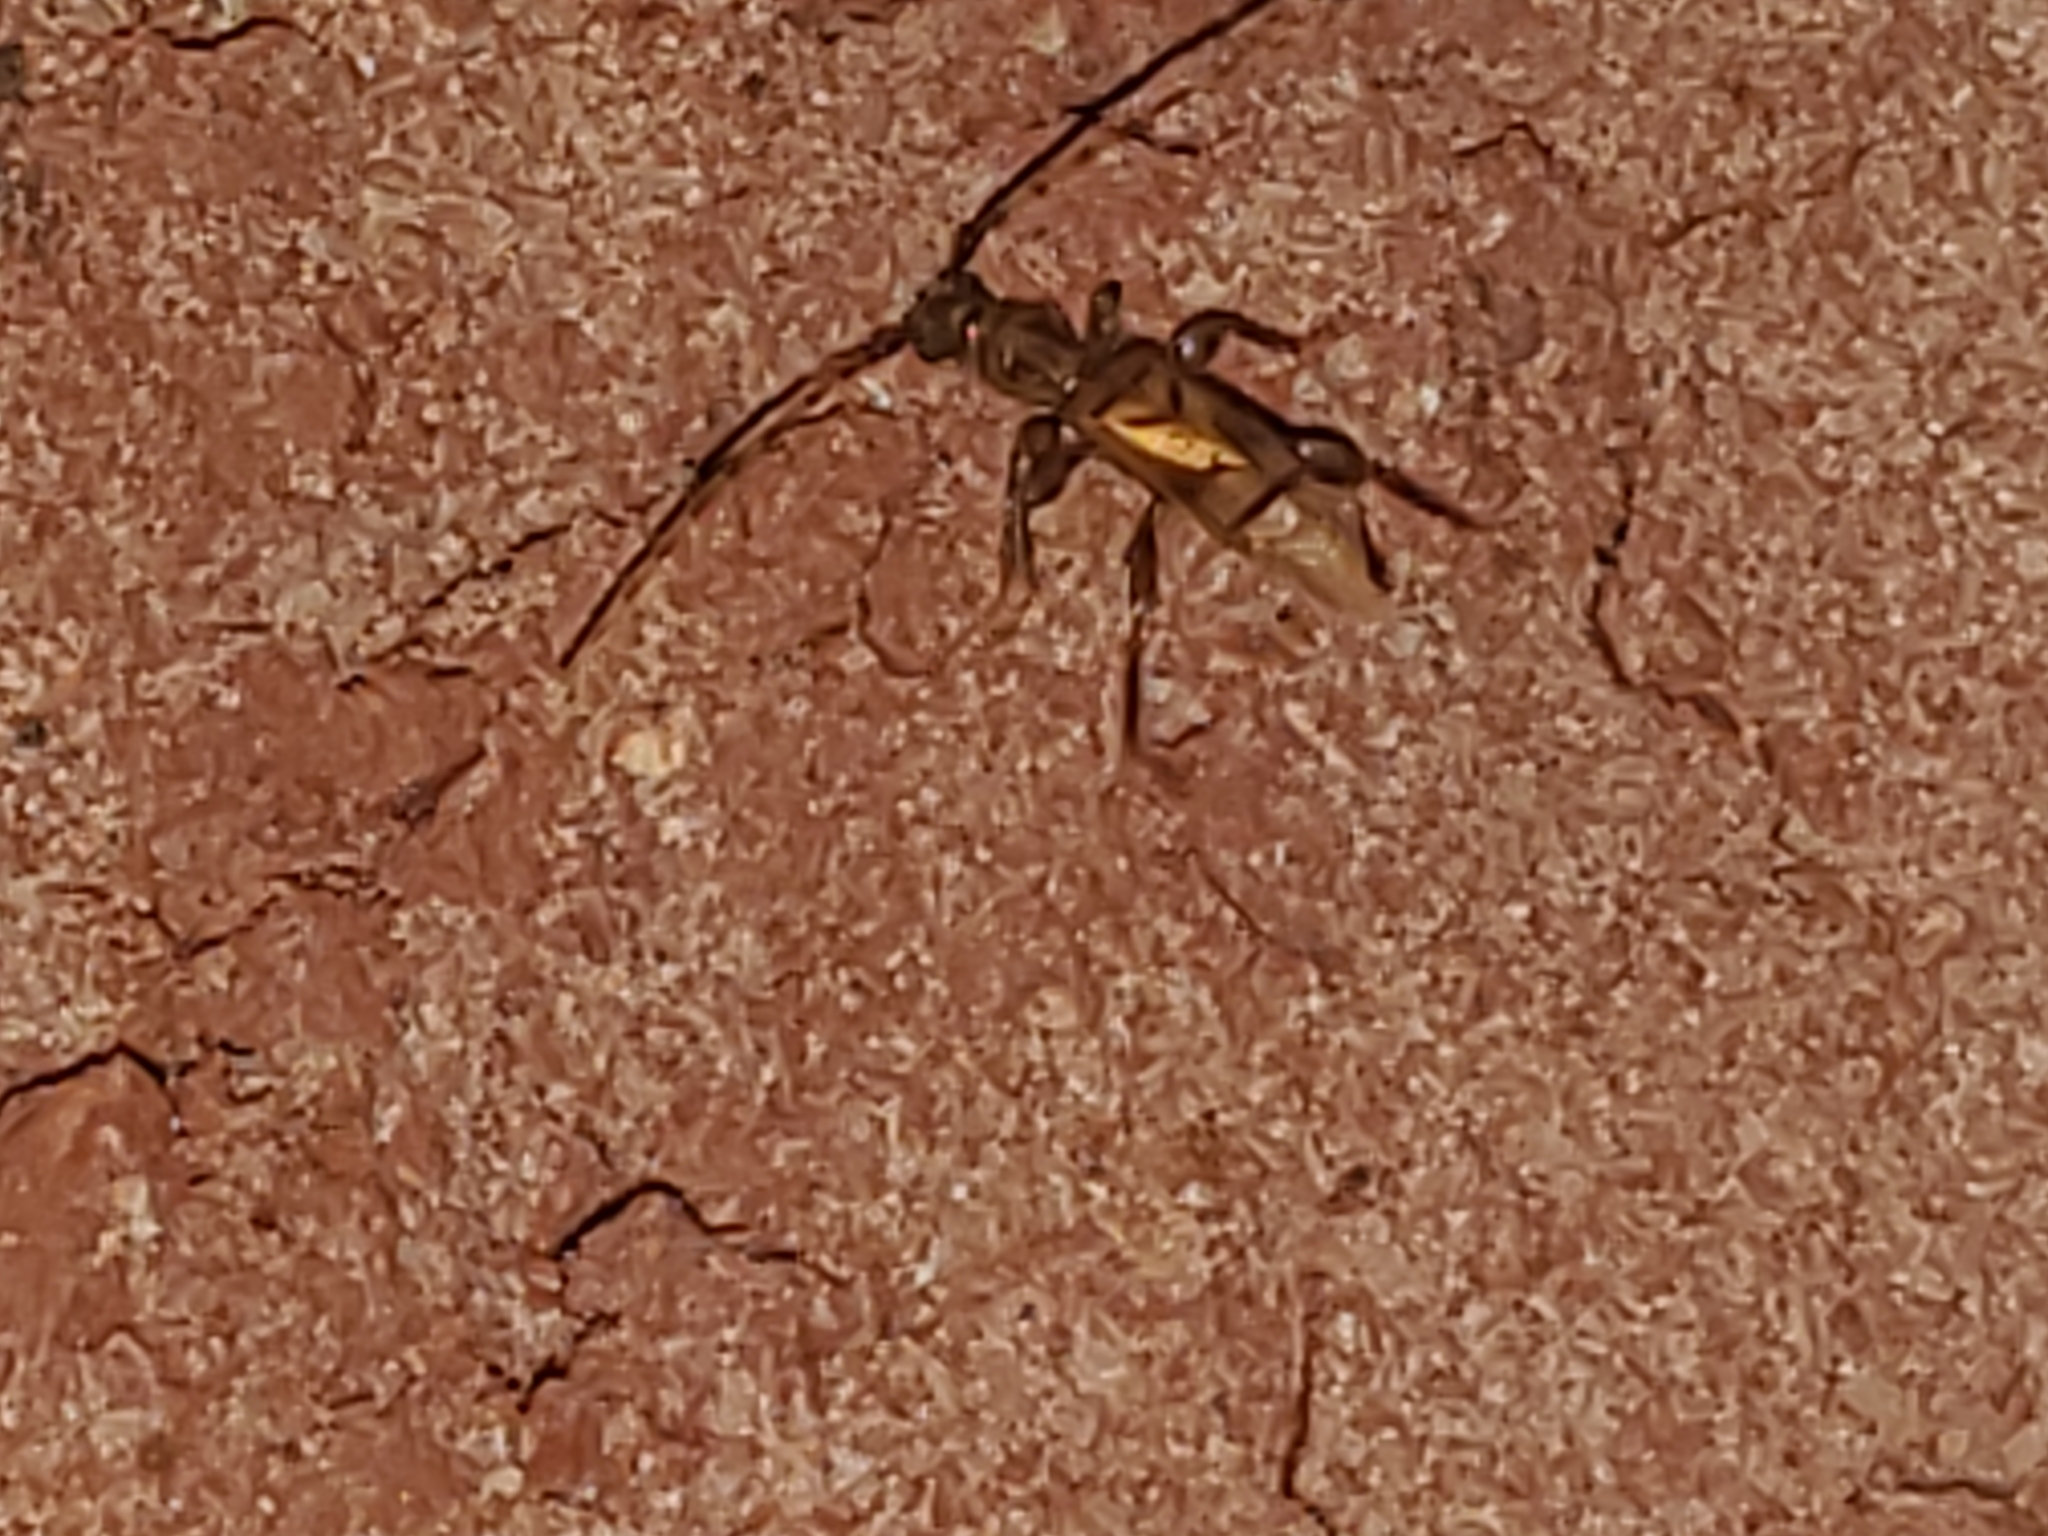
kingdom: Animalia
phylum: Arthropoda
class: Insecta
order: Coleoptera
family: Cerambycidae
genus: Obrium
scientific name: Obrium maculatum
